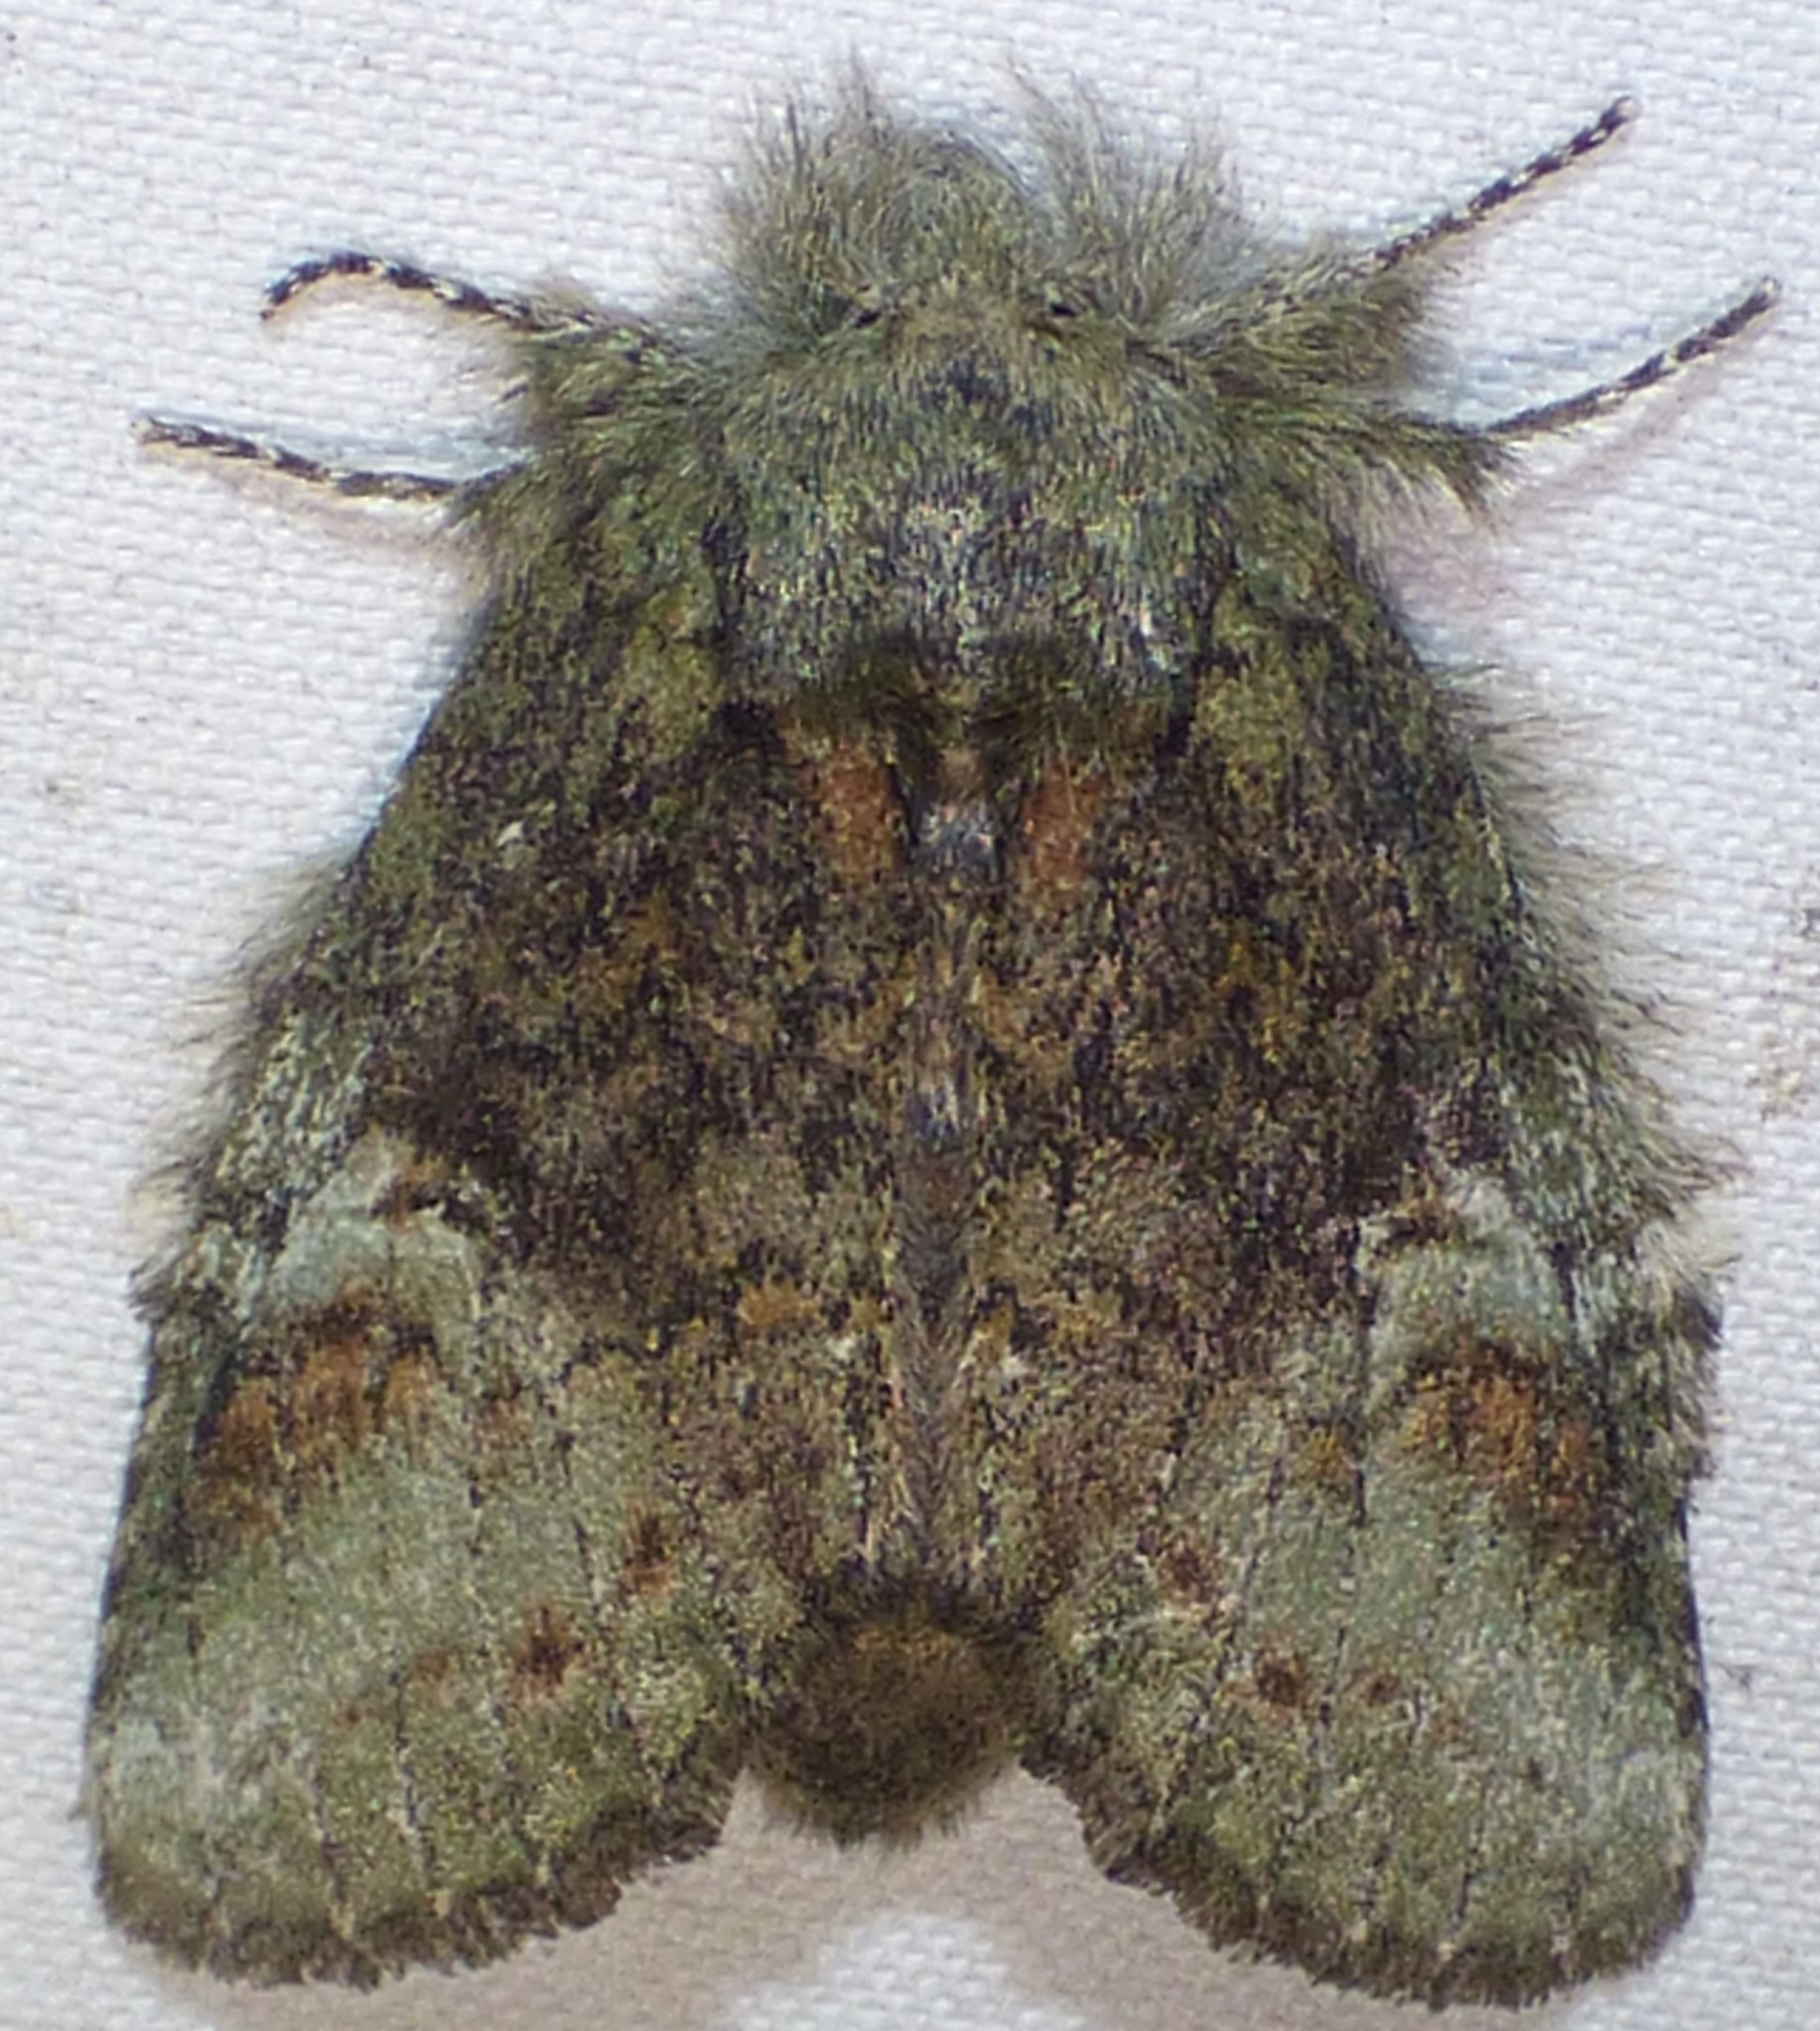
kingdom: Animalia
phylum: Arthropoda
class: Insecta
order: Lepidoptera
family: Notodontidae
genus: Disphragis
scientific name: Disphragis Cecrita guttivitta
